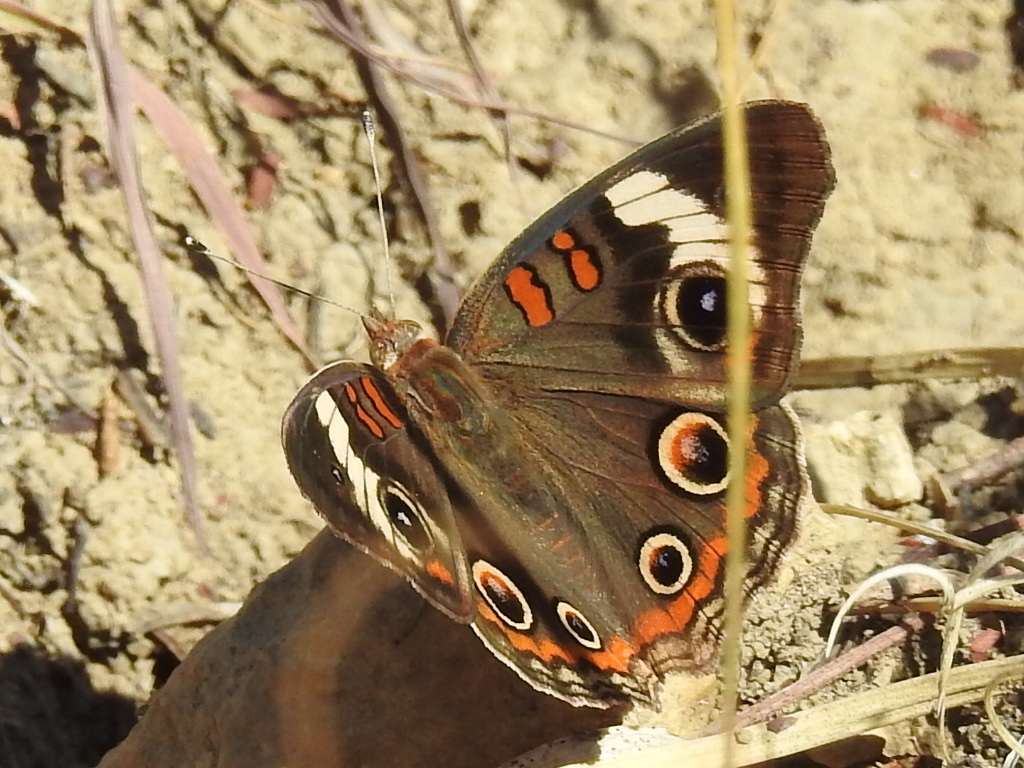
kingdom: Animalia
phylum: Arthropoda
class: Insecta
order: Lepidoptera
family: Nymphalidae
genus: Junonia
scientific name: Junonia coenia
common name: Common buckeye
